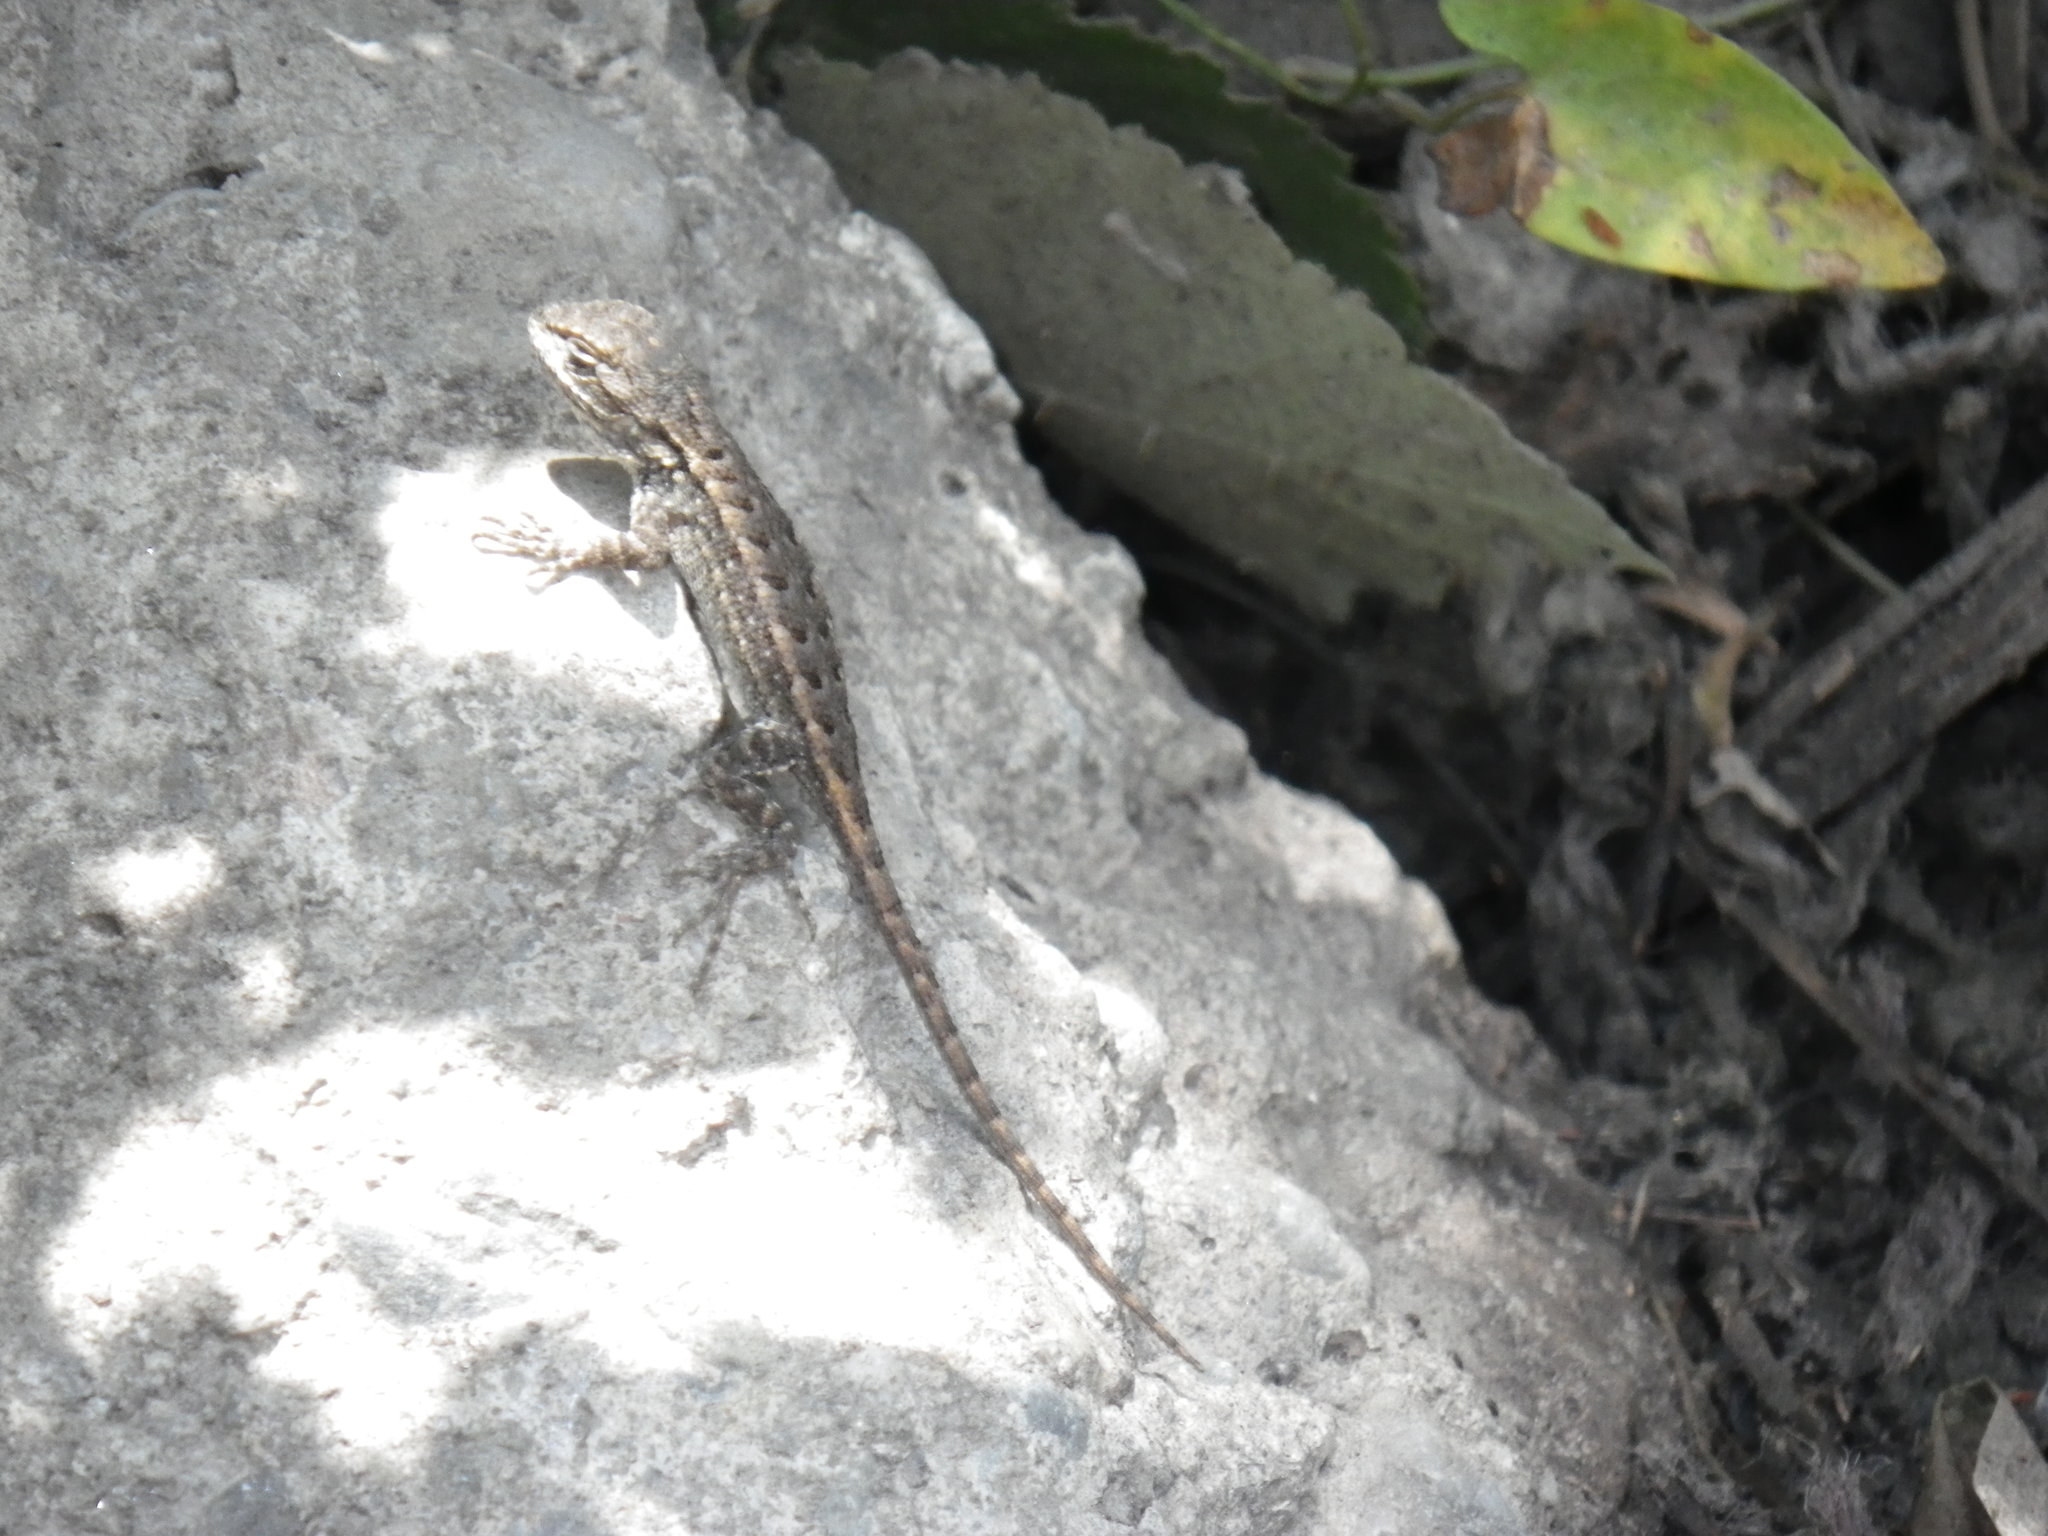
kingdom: Animalia
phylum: Chordata
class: Squamata
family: Phrynosomatidae
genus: Sceloporus
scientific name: Sceloporus occidentalis
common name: Western fence lizard
